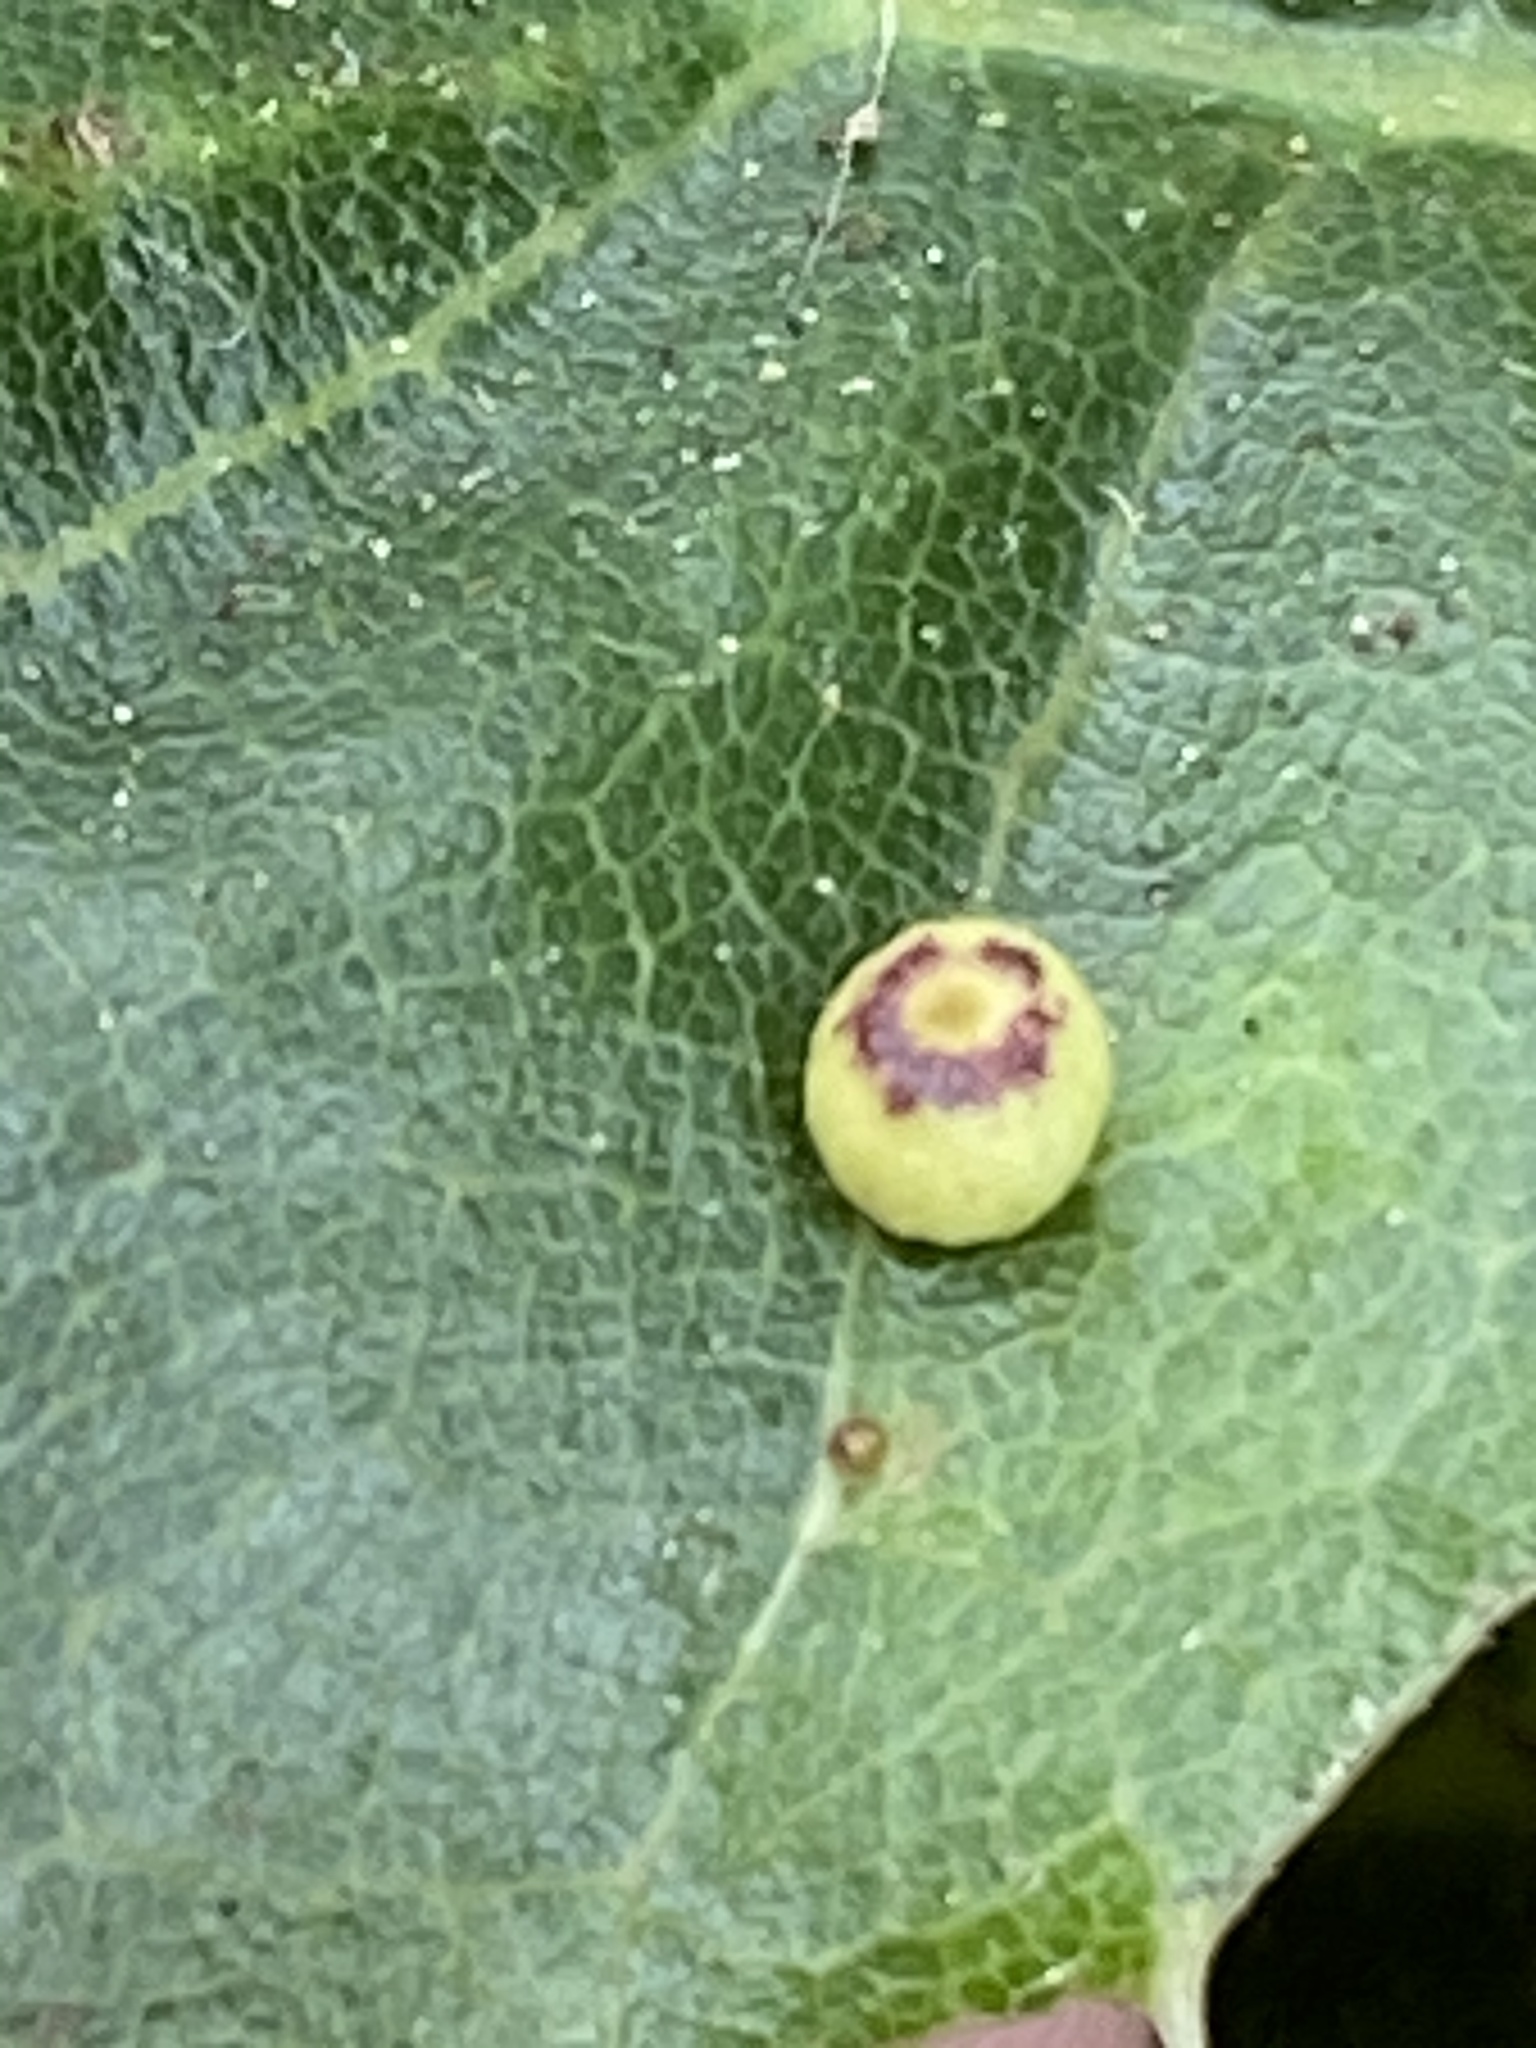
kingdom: Animalia
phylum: Arthropoda
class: Insecta
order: Hymenoptera
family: Cynipidae
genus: Dryocosmus
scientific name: Dryocosmus
